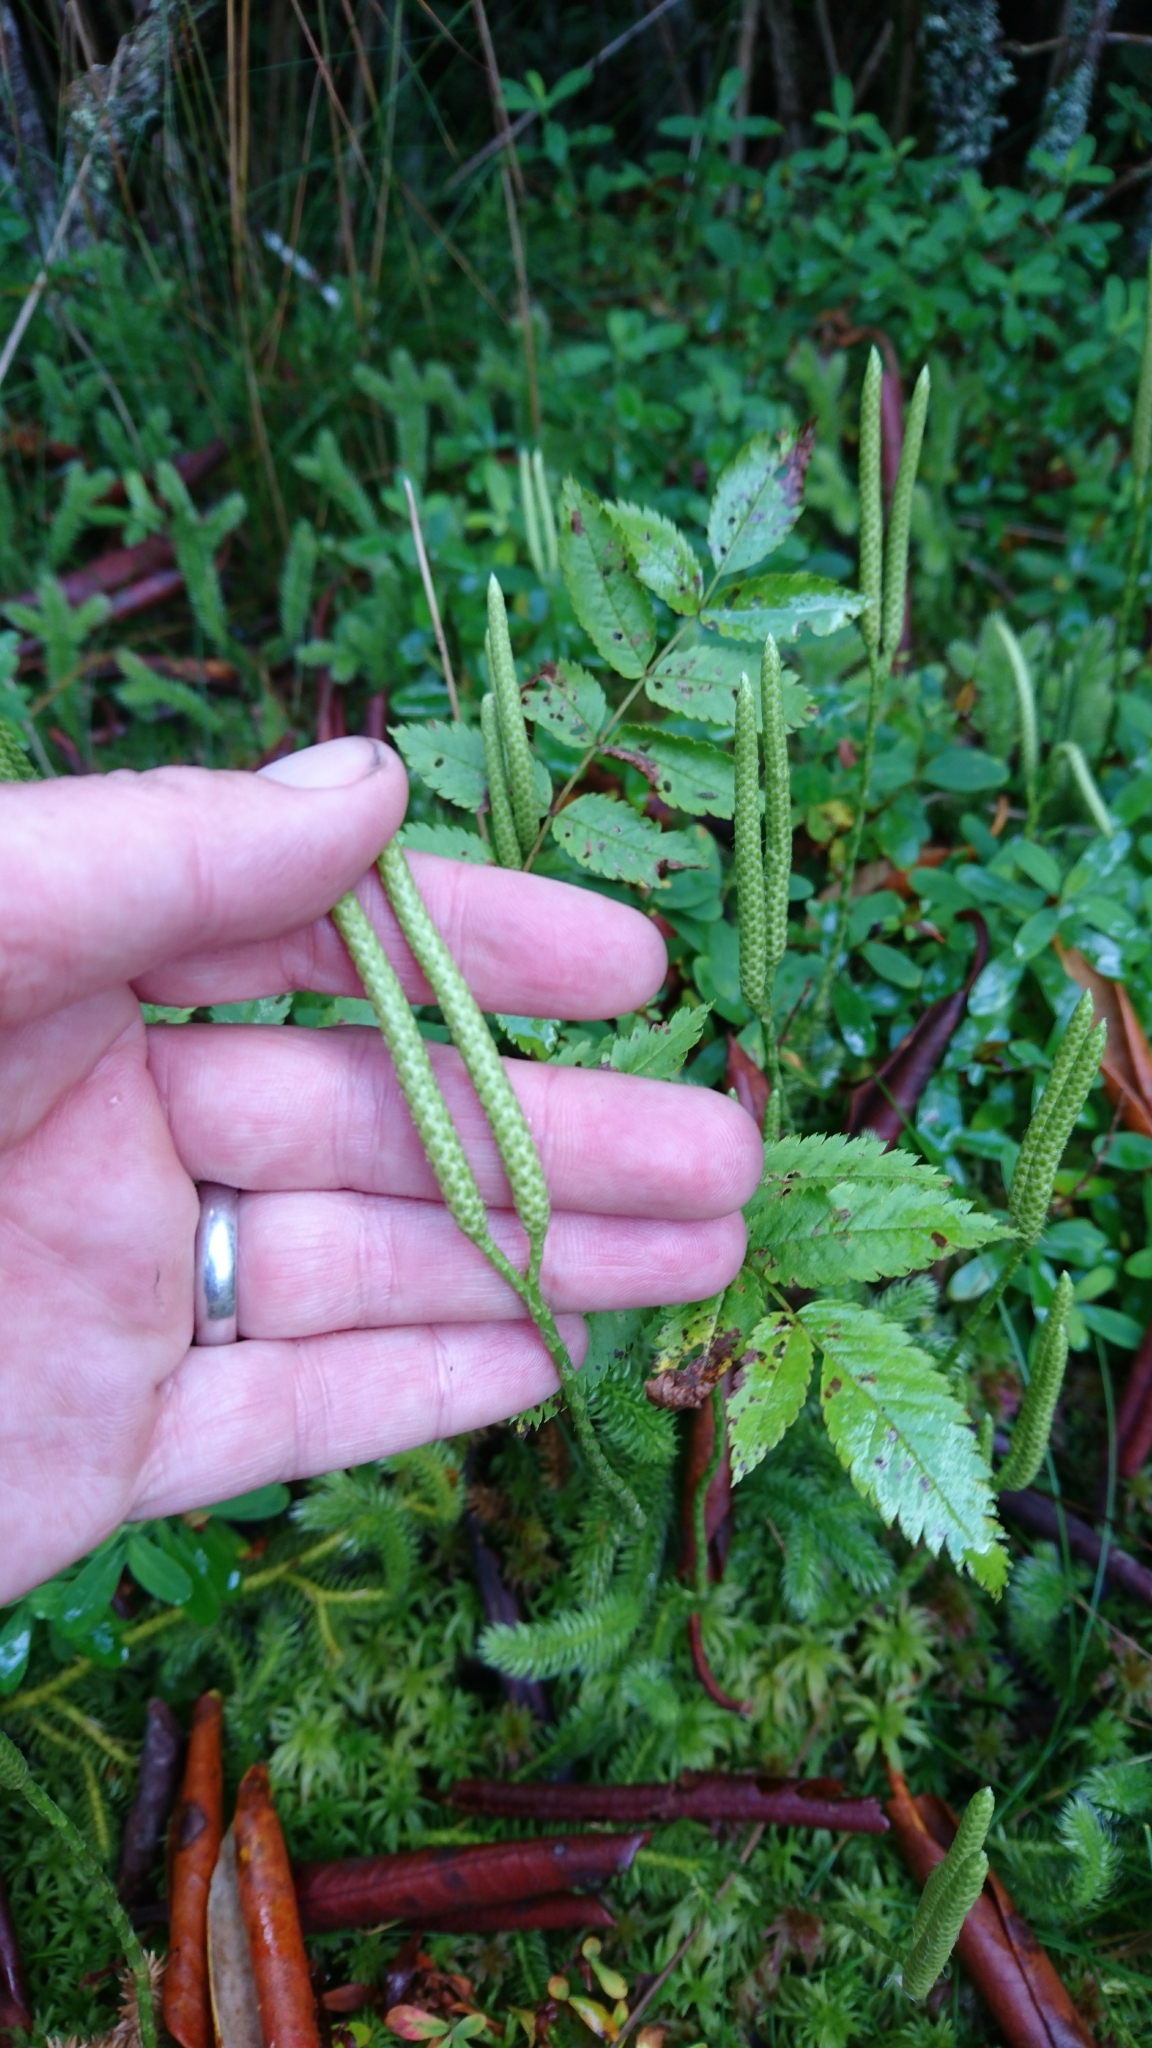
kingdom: Plantae
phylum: Tracheophyta
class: Lycopodiopsida
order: Lycopodiales
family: Lycopodiaceae
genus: Lycopodium
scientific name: Lycopodium clavatum
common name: Stag's-horn clubmoss
